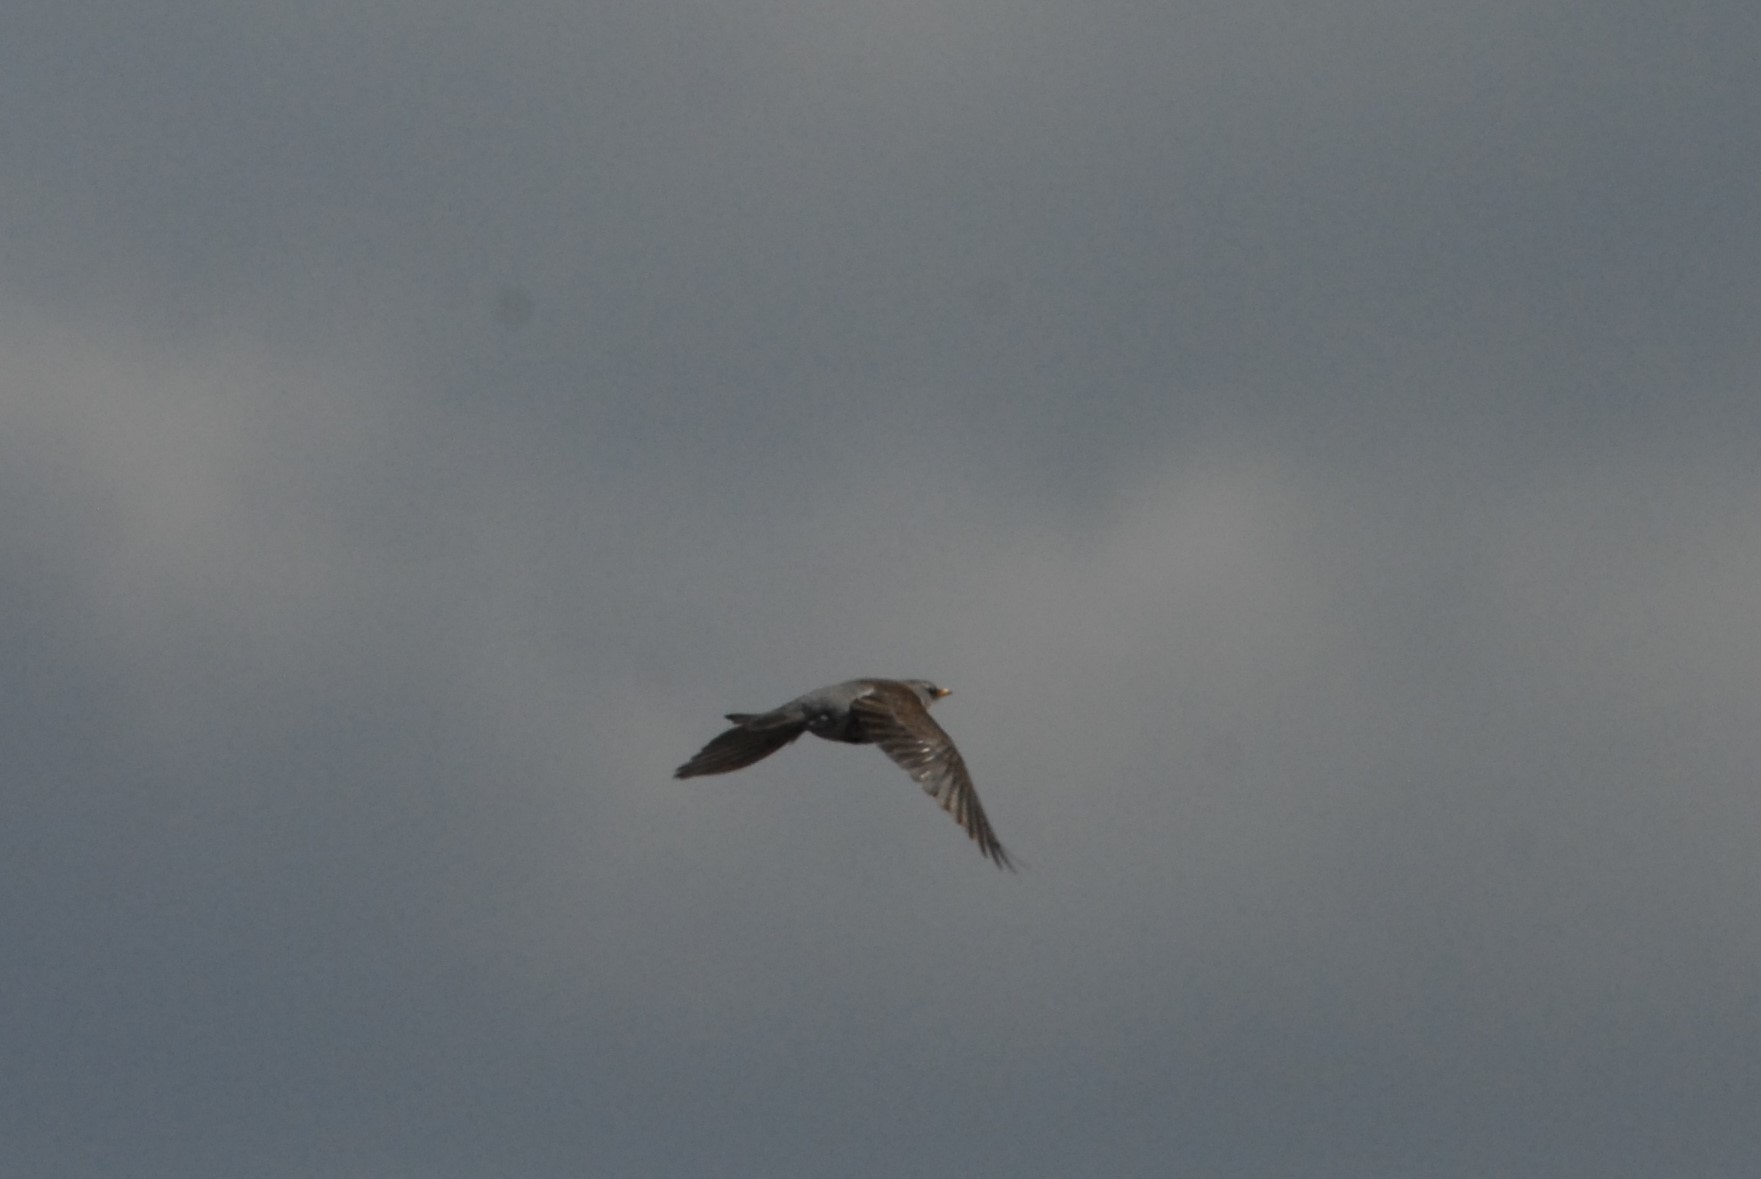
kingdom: Animalia
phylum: Chordata
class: Aves
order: Passeriformes
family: Turdidae
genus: Turdus
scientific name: Turdus pilaris
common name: Fieldfare
